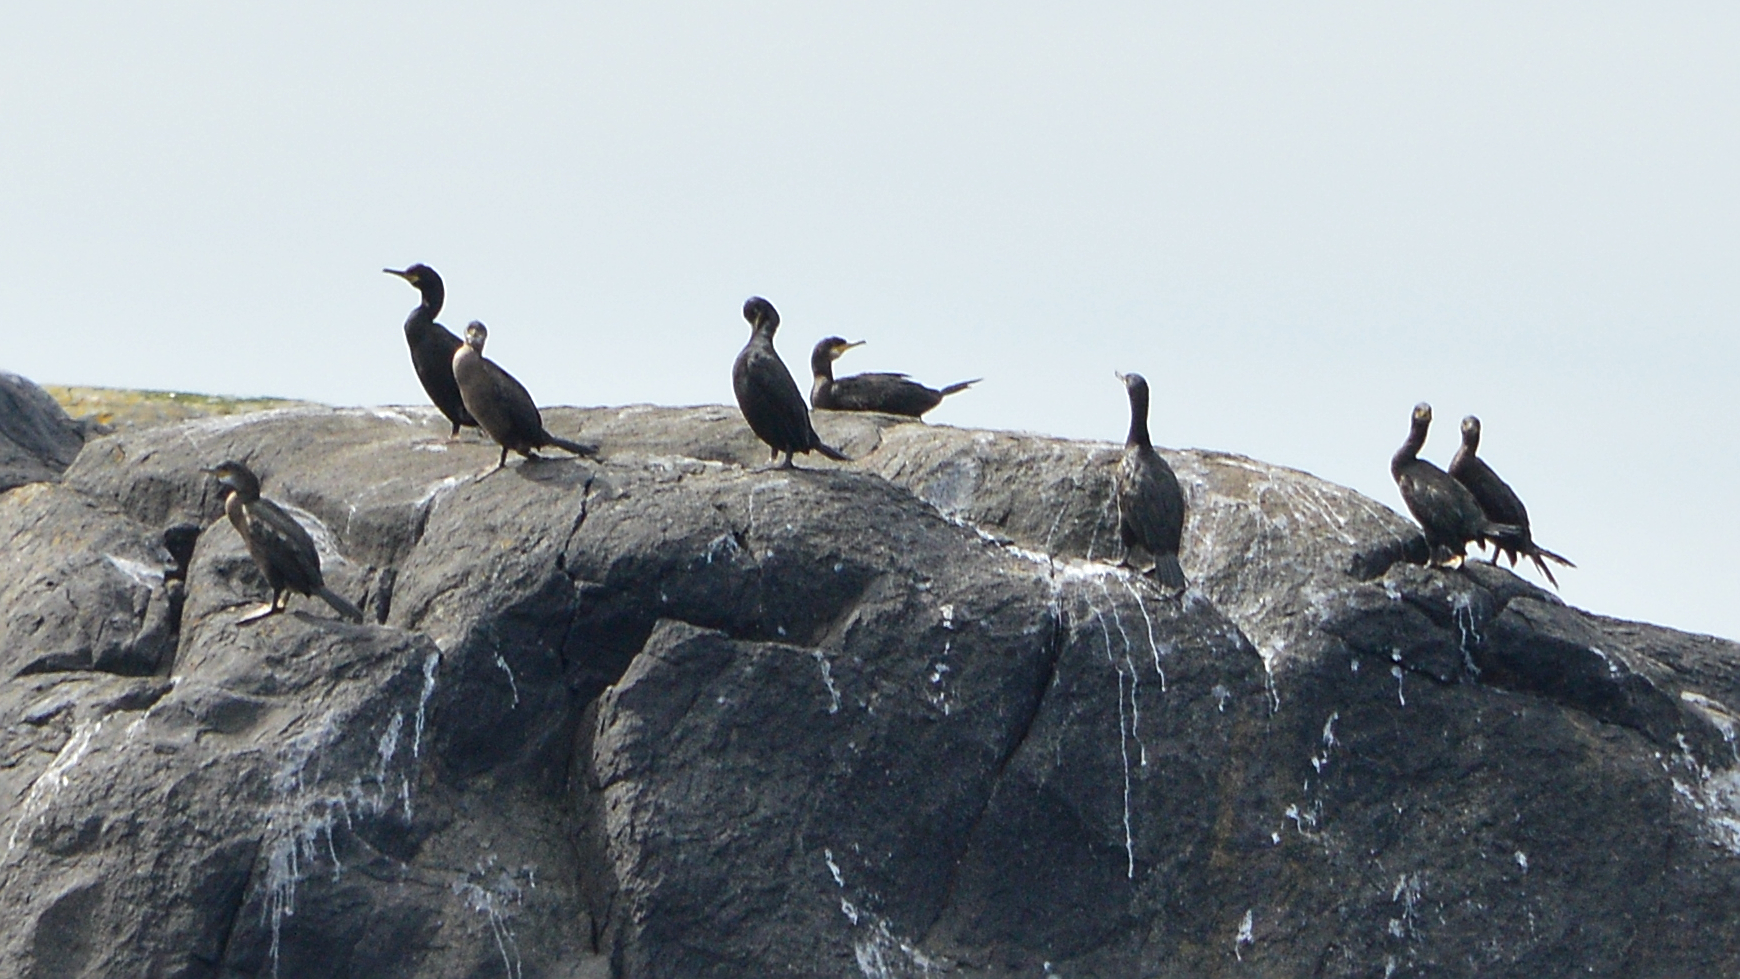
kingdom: Animalia
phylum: Chordata
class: Aves
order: Suliformes
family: Phalacrocoracidae
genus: Phalacrocorax
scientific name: Phalacrocorax aristotelis
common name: European shag
